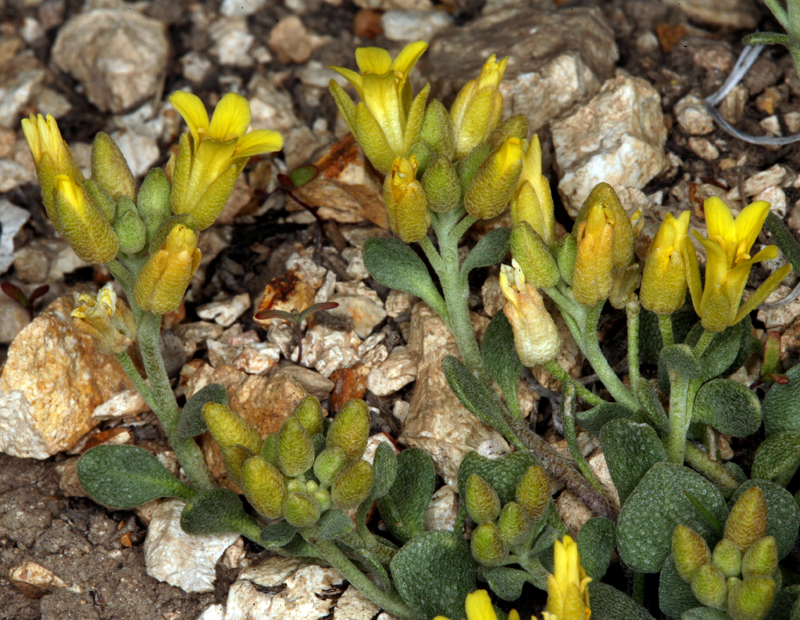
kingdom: Plantae
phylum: Tracheophyta
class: Magnoliopsida
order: Brassicales
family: Brassicaceae
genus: Physaria
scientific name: Physaria kingii
